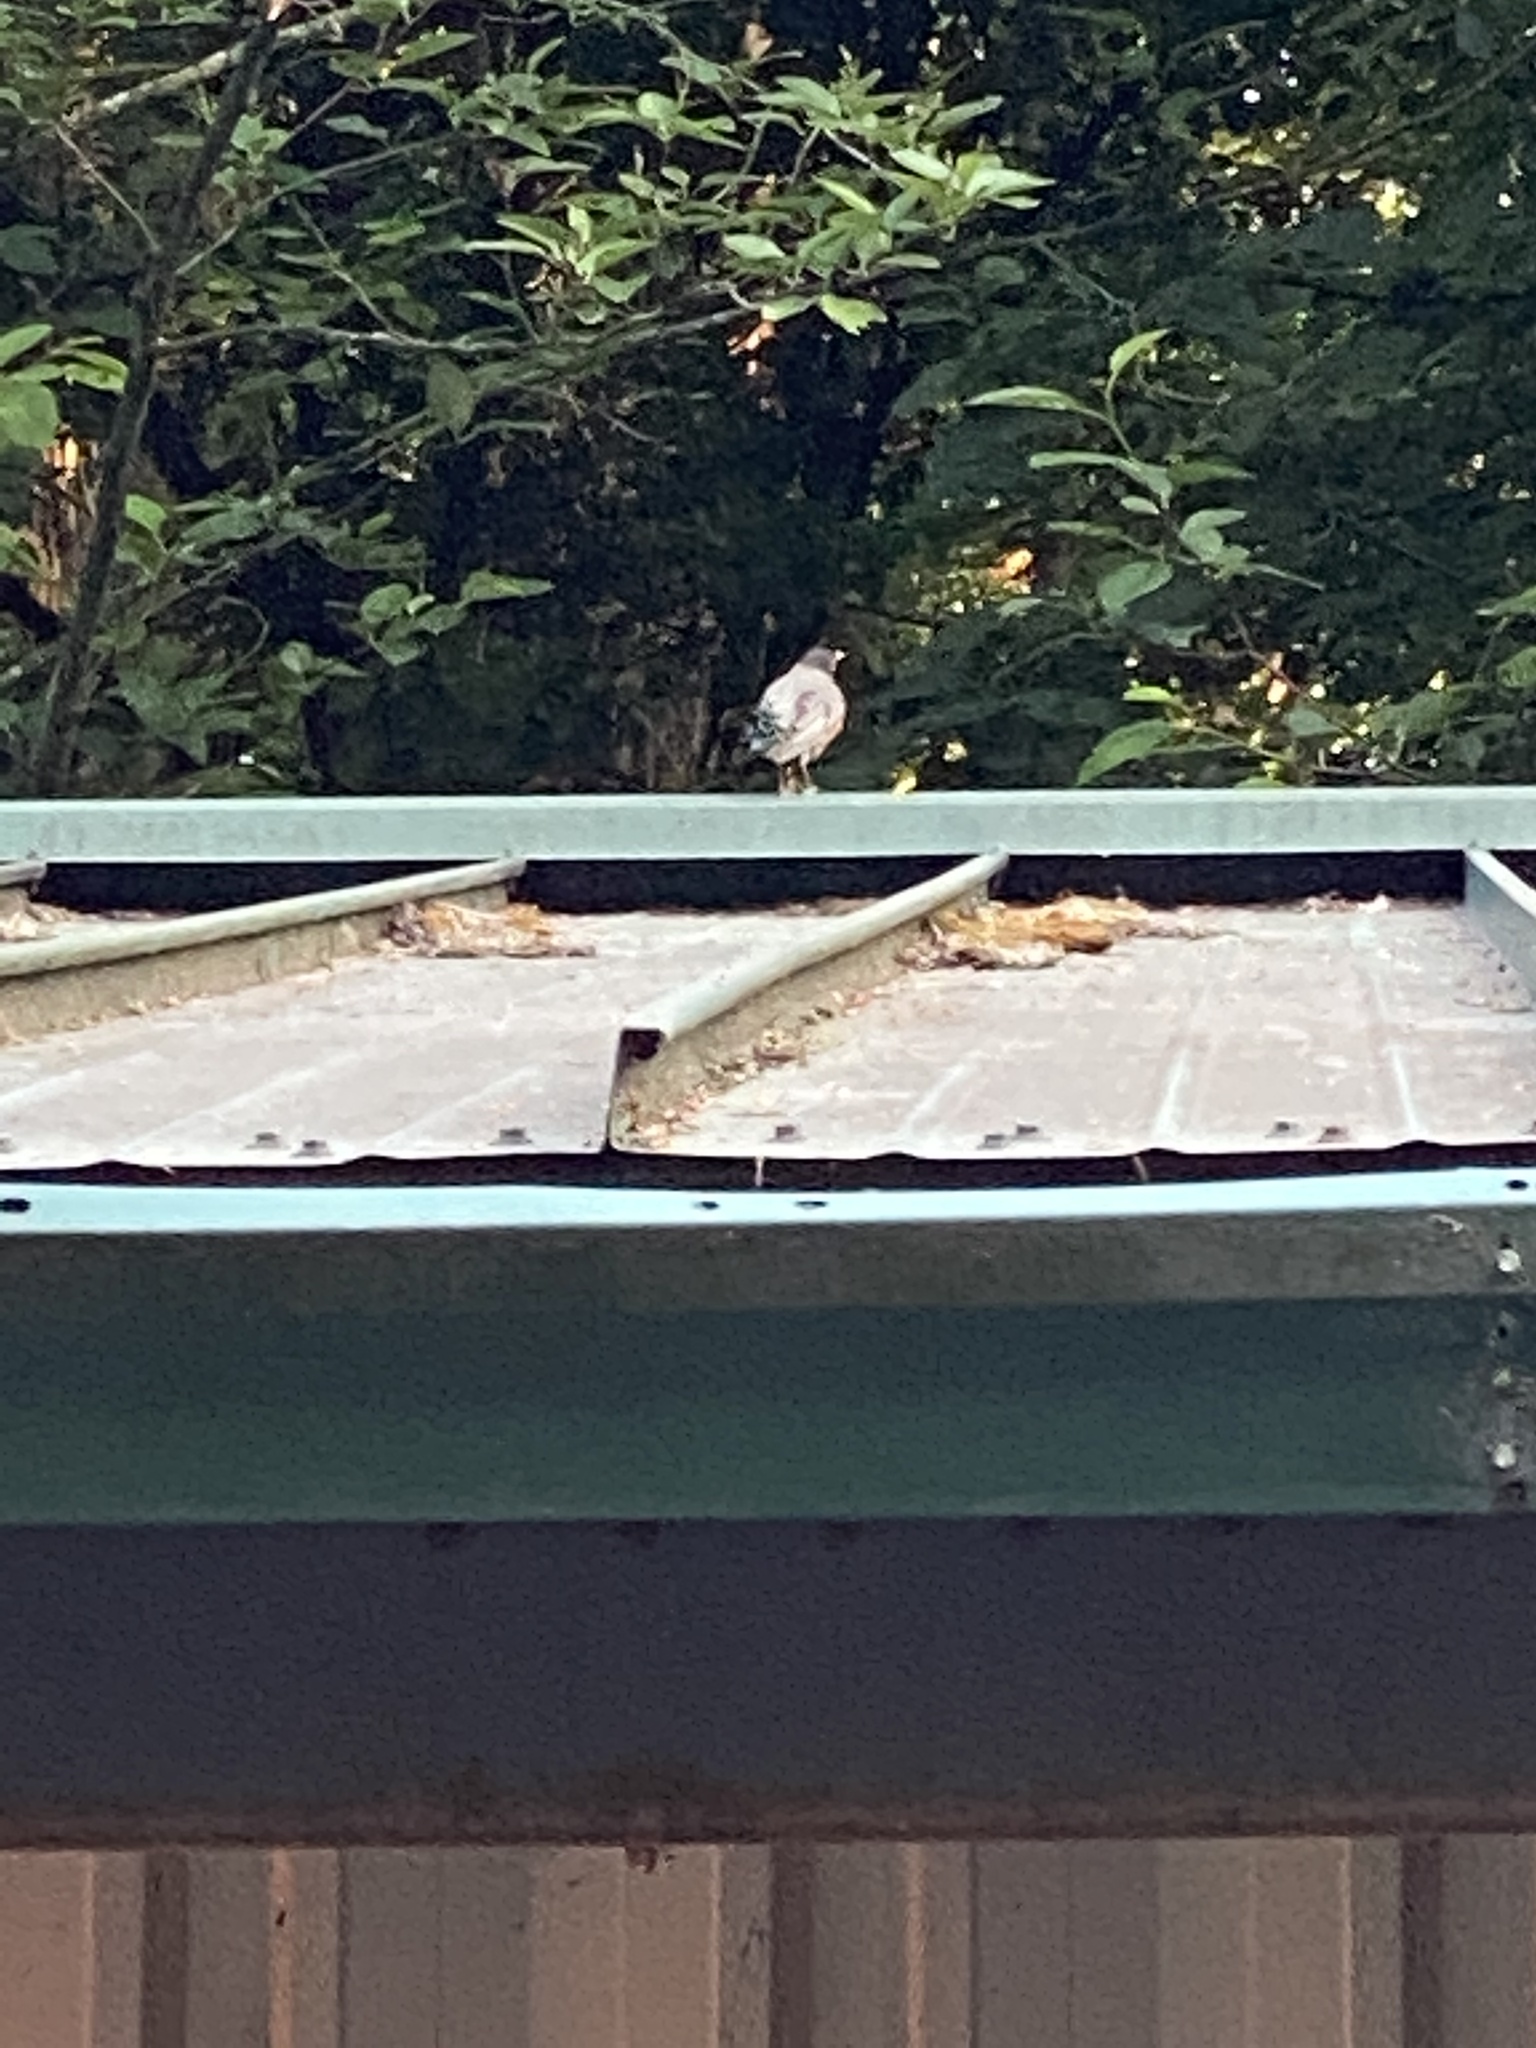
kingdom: Animalia
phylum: Chordata
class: Aves
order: Passeriformes
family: Turdidae
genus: Turdus
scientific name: Turdus migratorius
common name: American robin
